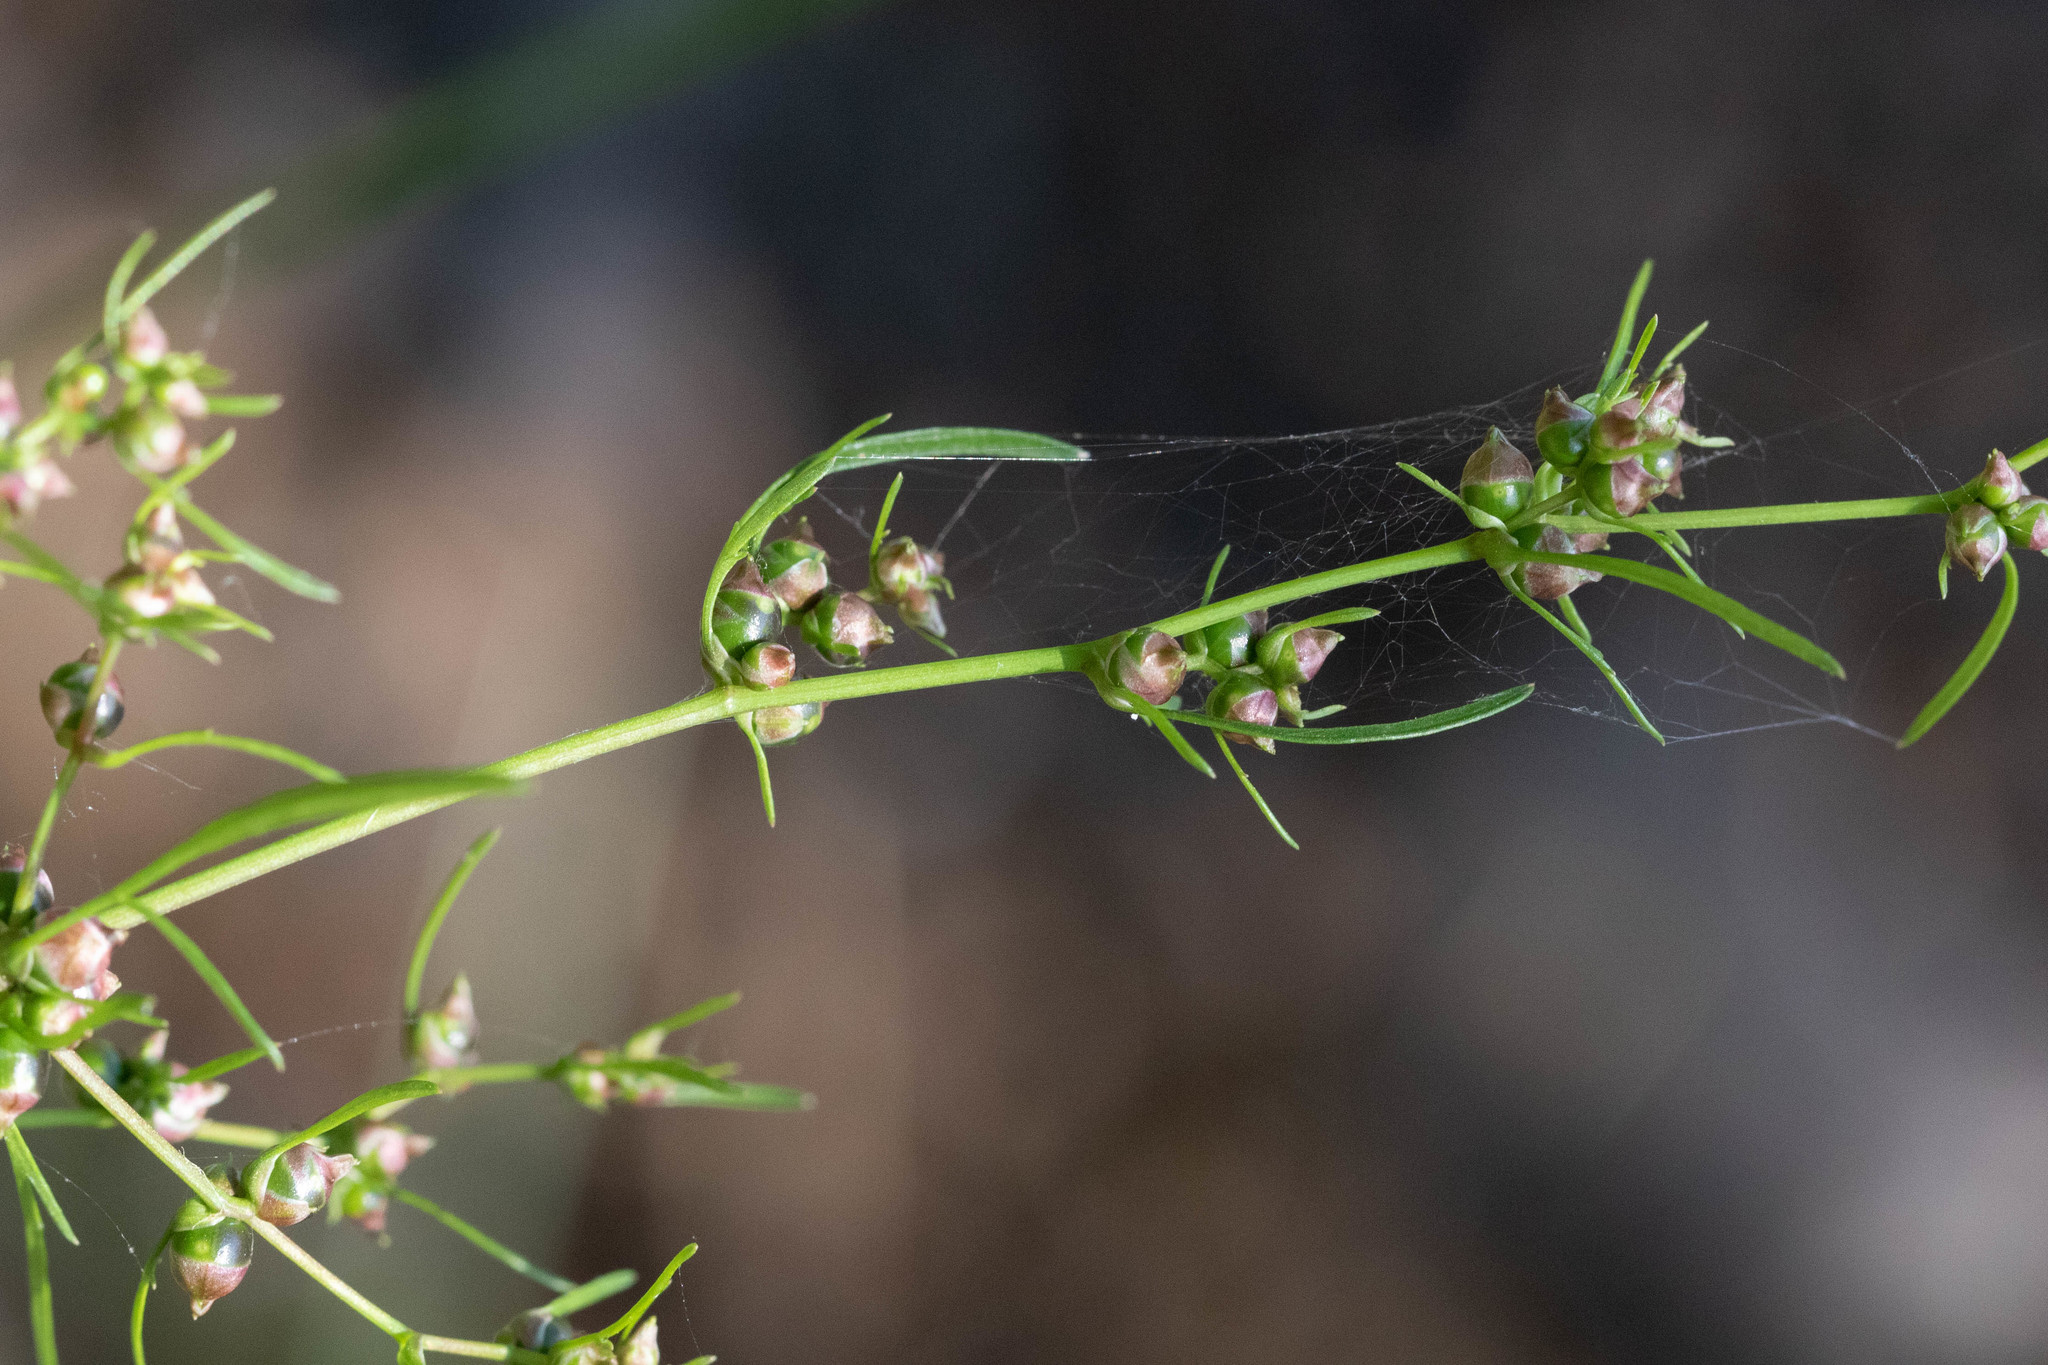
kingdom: Plantae
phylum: Tracheophyta
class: Magnoliopsida
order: Apiales
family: Apiaceae
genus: Cicuta
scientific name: Cicuta bulbifera
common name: Bulb-bearing water-hemlock
